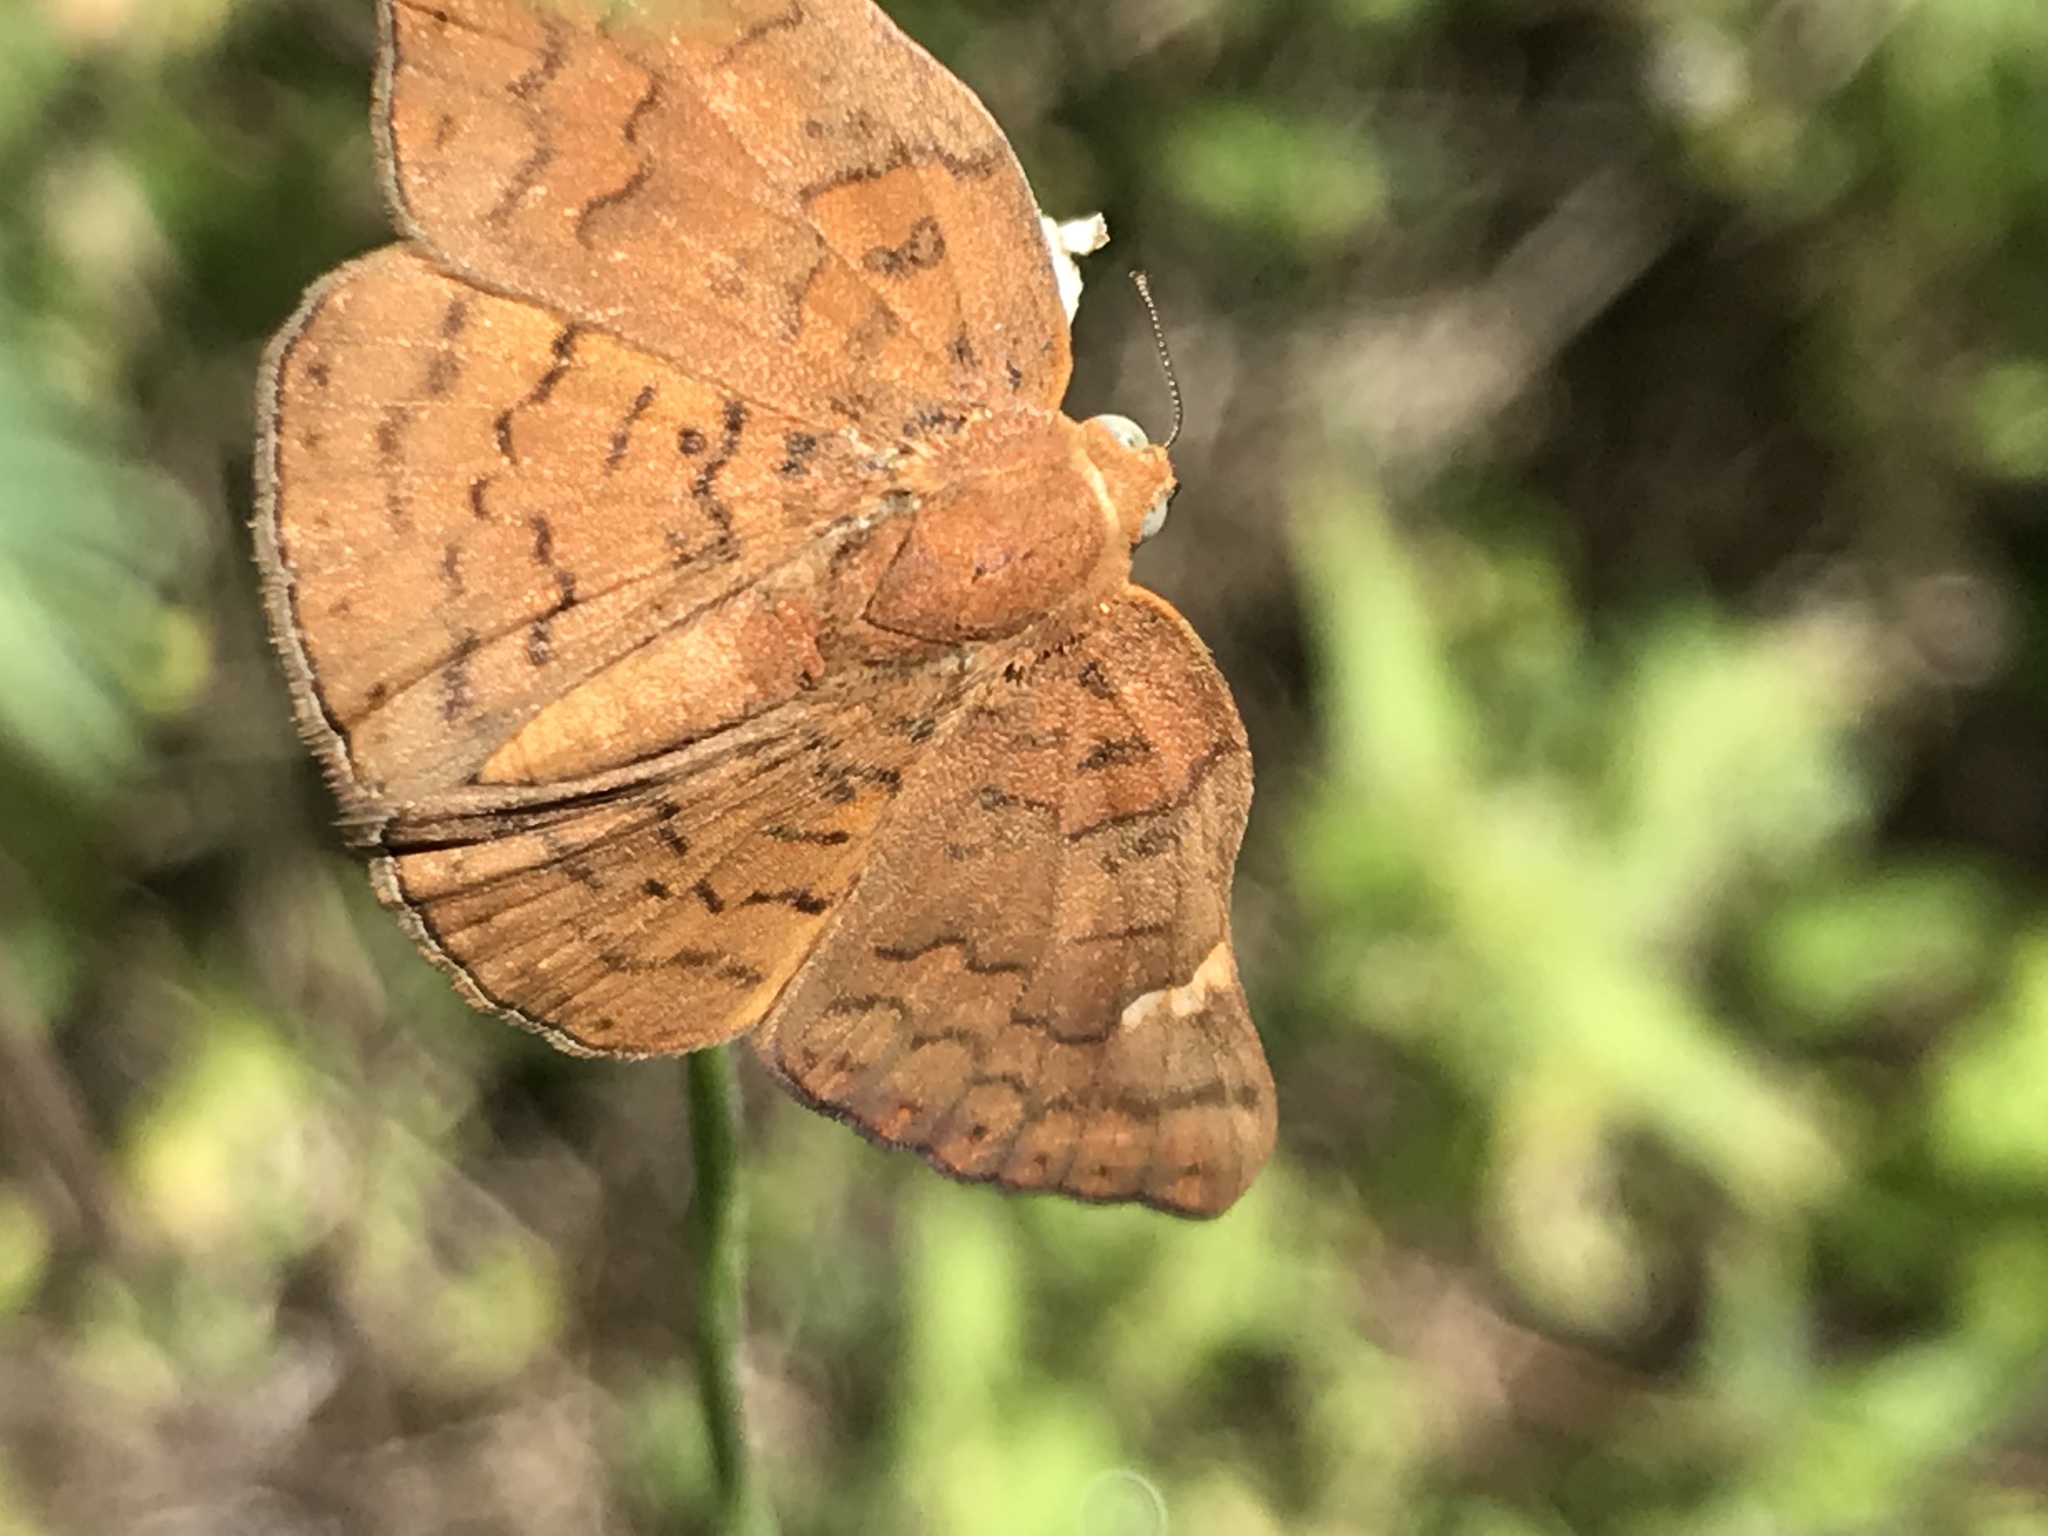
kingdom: Animalia
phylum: Arthropoda
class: Insecta
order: Lepidoptera
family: Riodinidae
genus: Curvie
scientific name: Curvie emesia
